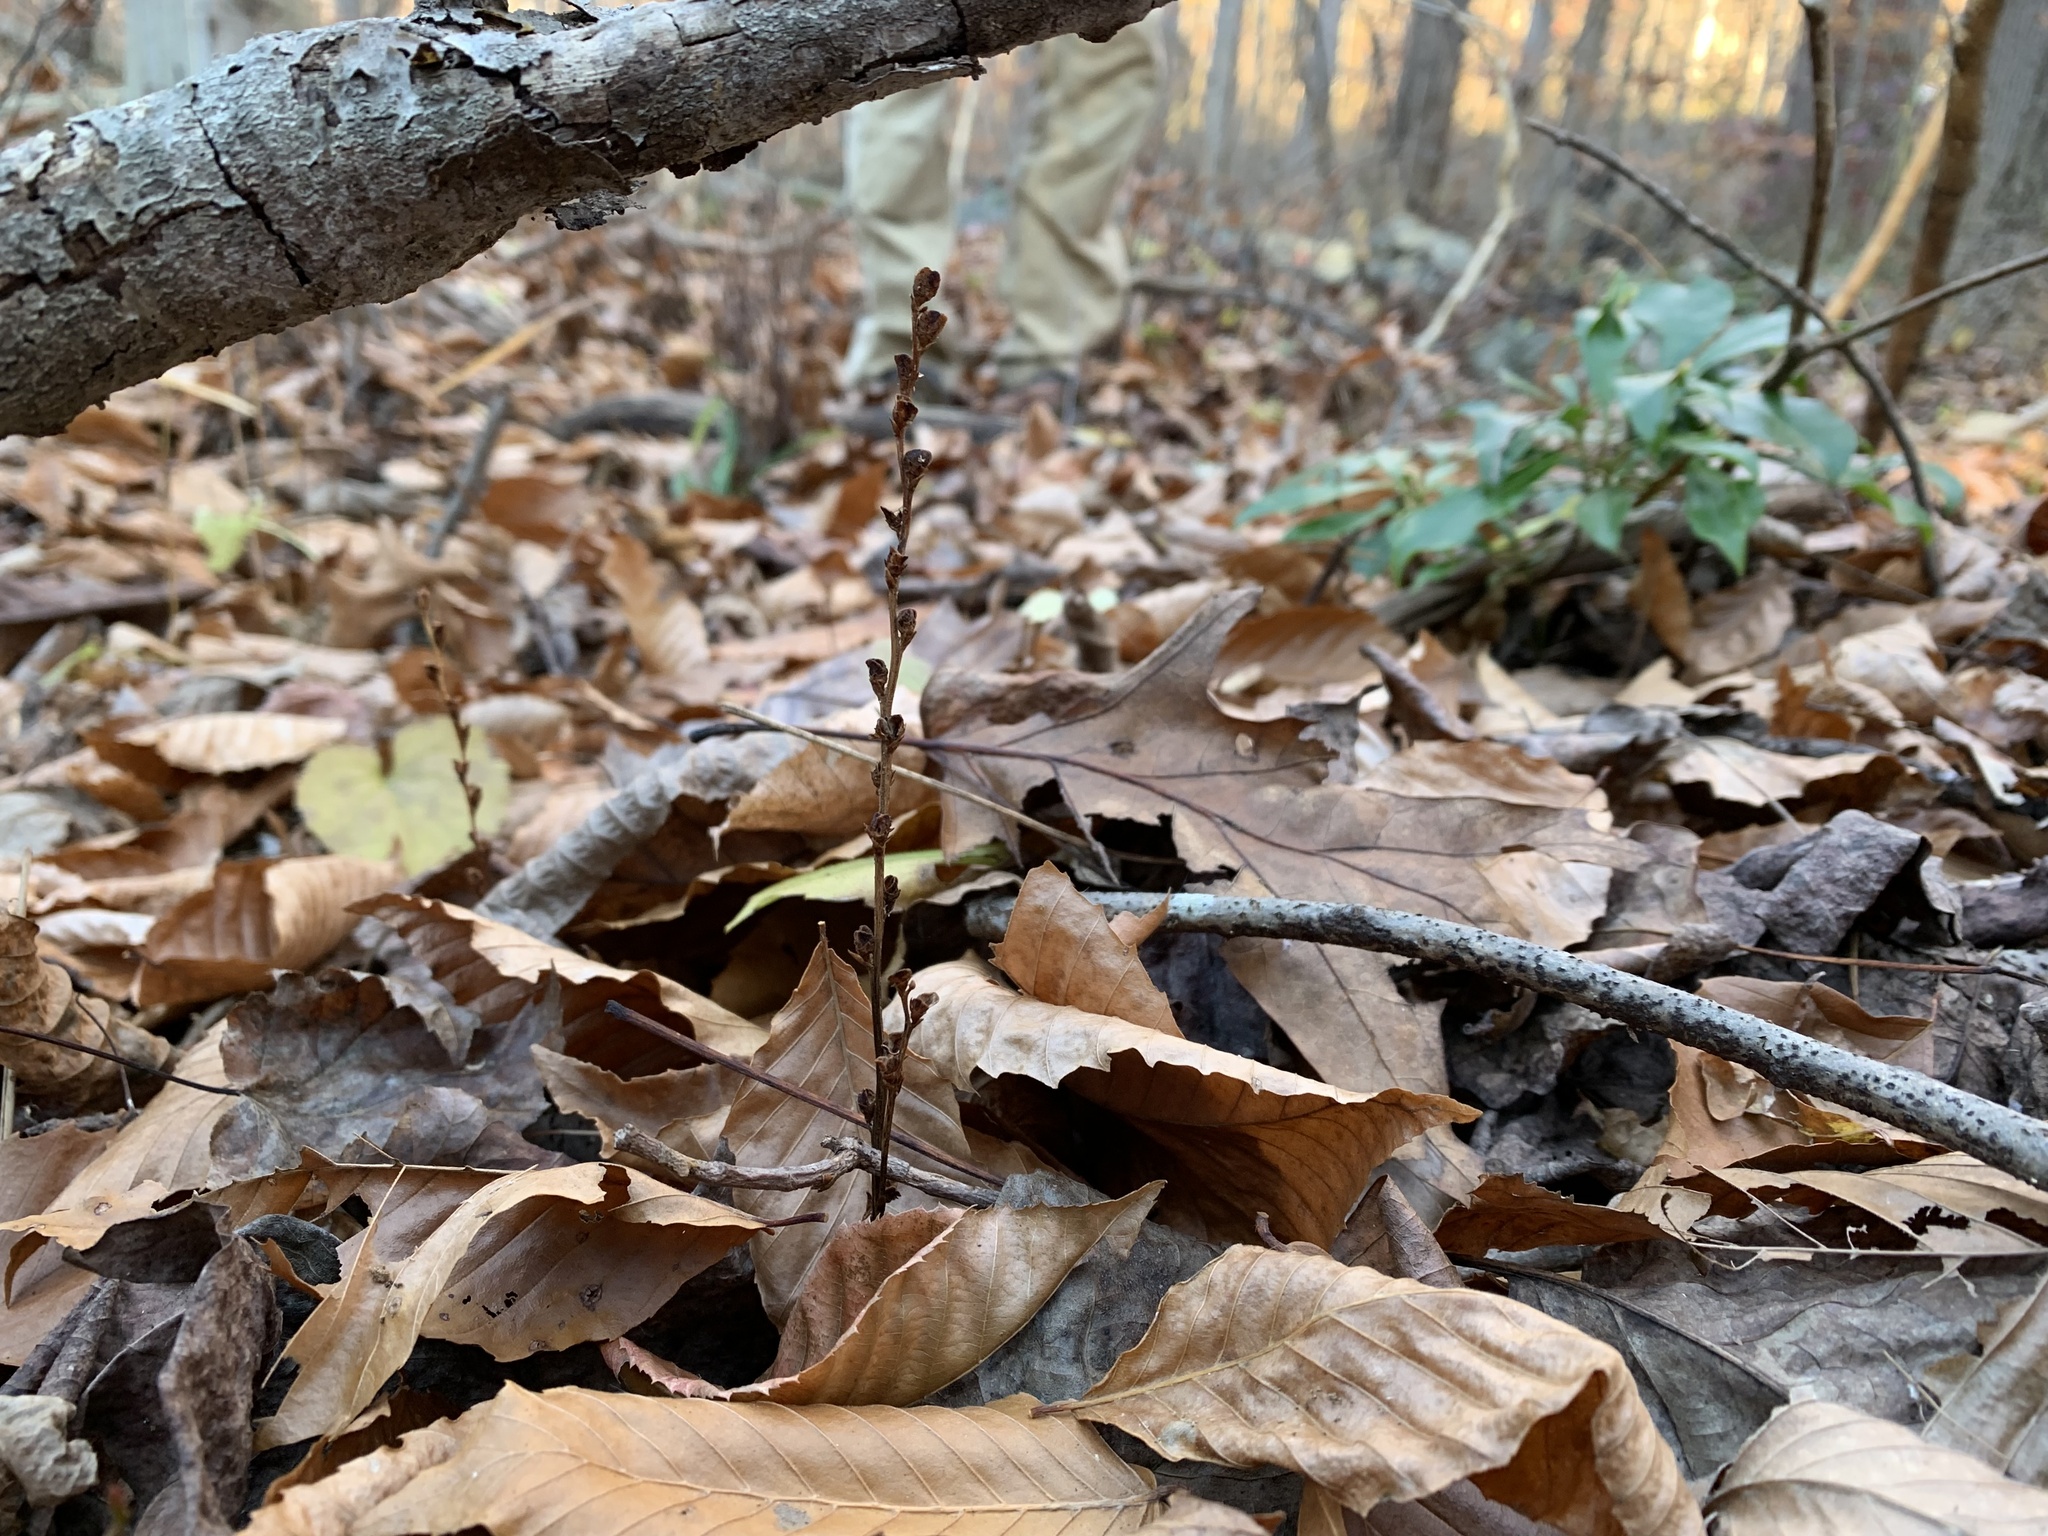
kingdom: Plantae
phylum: Tracheophyta
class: Magnoliopsida
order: Lamiales
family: Orobanchaceae
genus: Epifagus
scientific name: Epifagus virginiana
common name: Beechdrops
